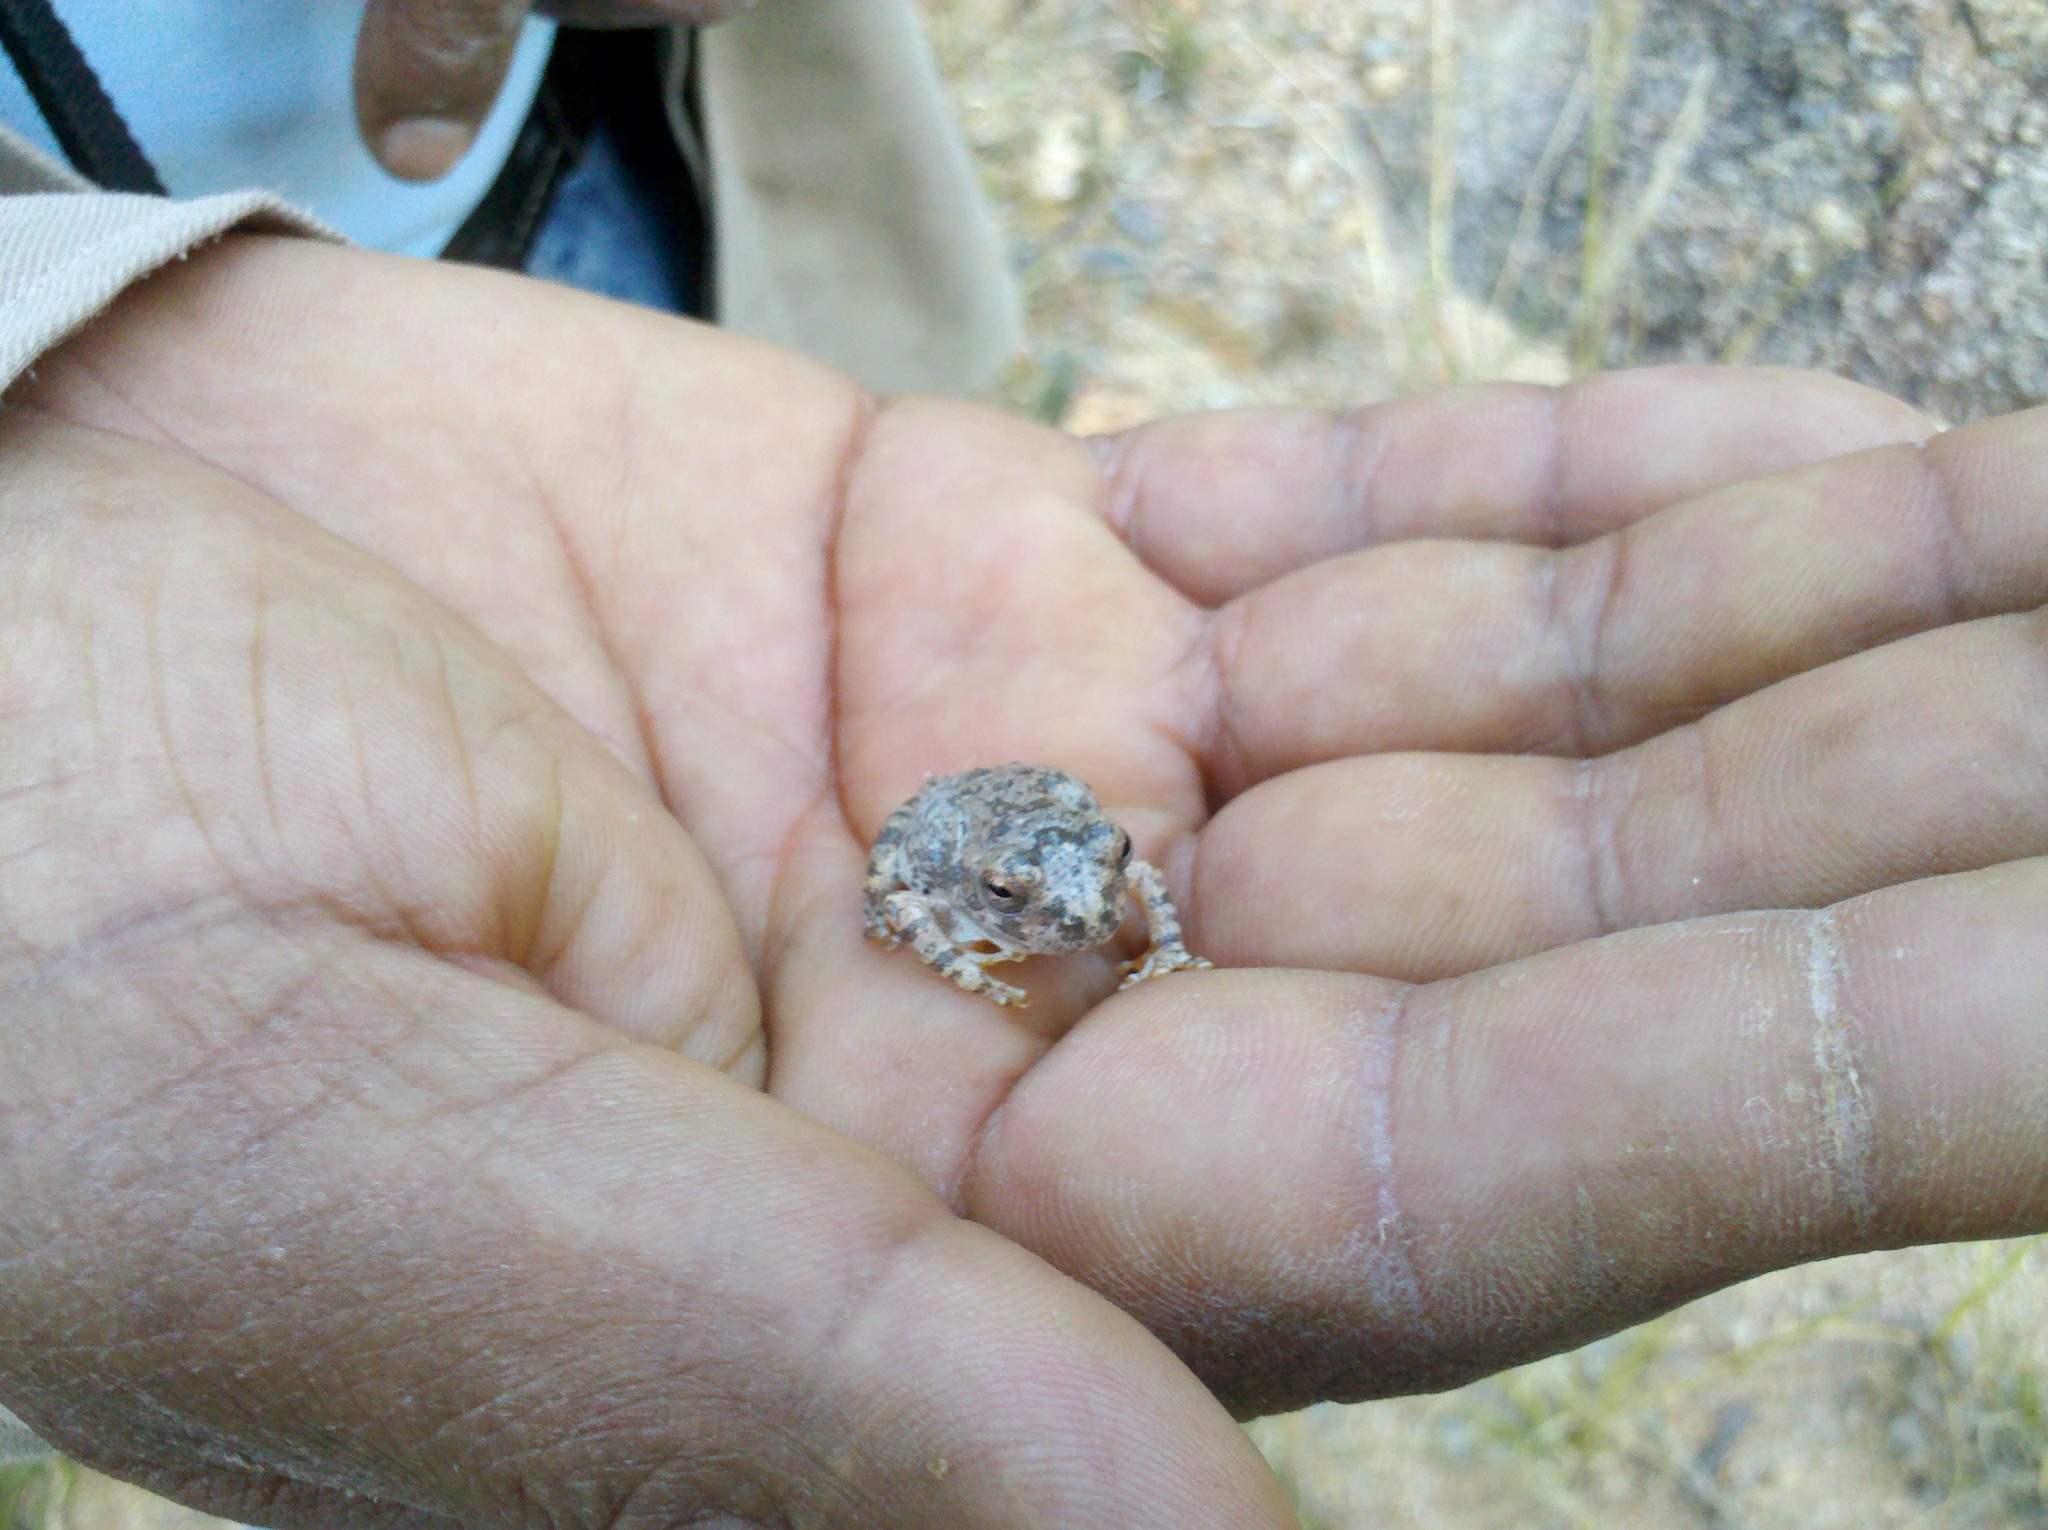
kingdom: Animalia
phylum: Chordata
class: Amphibia
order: Anura
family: Hylidae
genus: Dryophytes
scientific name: Dryophytes arenicolor
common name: Canyon treefrog
